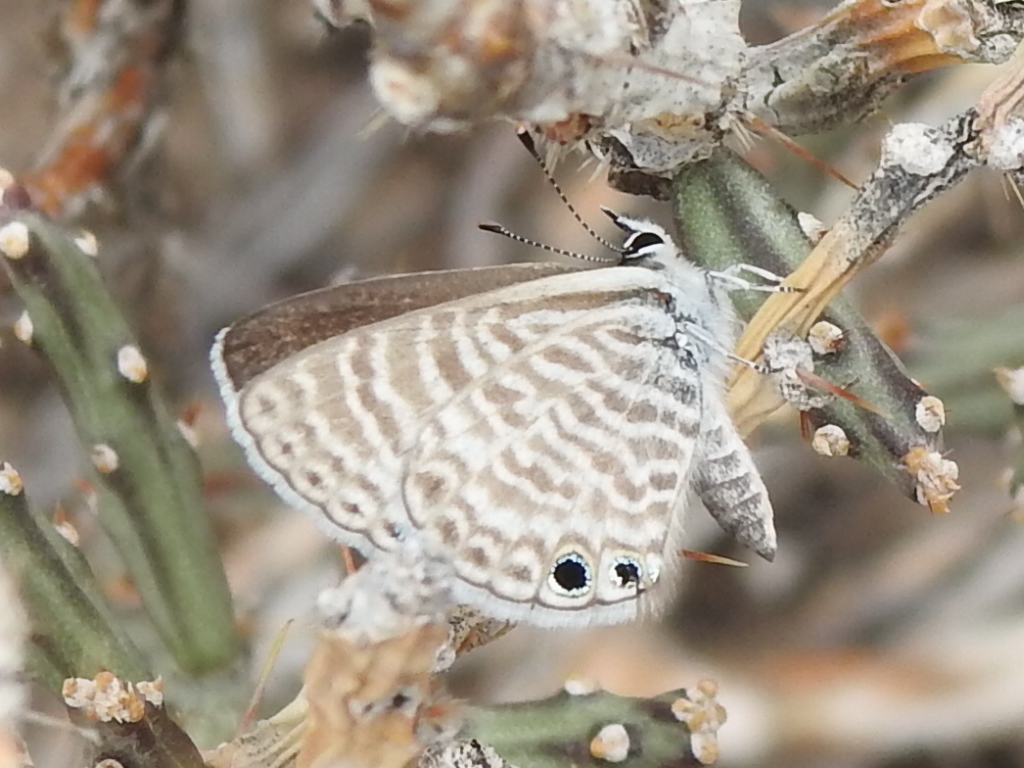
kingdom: Animalia
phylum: Arthropoda
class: Insecta
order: Lepidoptera
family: Lycaenidae
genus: Leptotes
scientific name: Leptotes marina
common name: Marine blue
